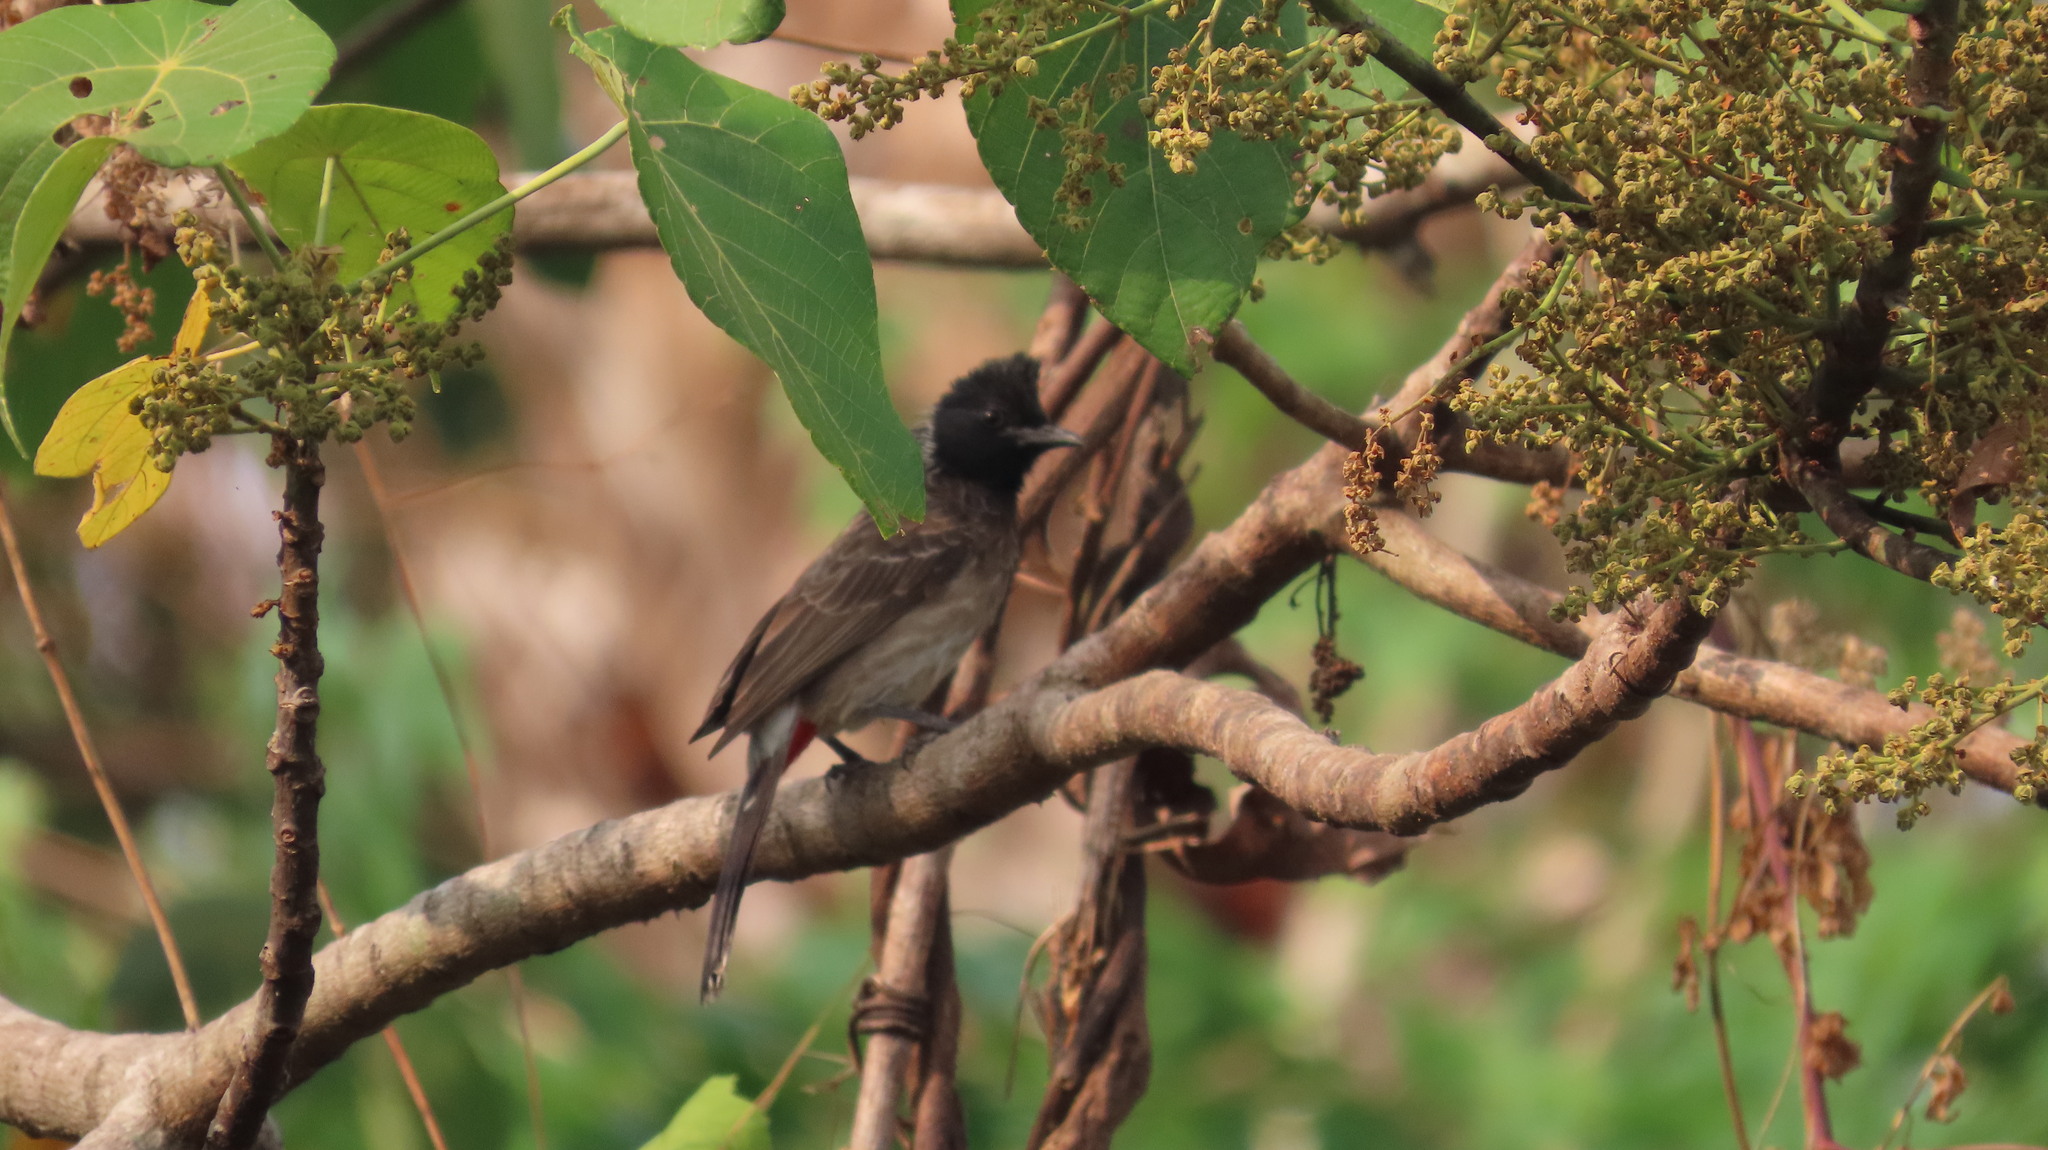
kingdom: Animalia
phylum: Chordata
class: Aves
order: Passeriformes
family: Pycnonotidae
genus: Pycnonotus
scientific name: Pycnonotus cafer
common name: Red-vented bulbul
